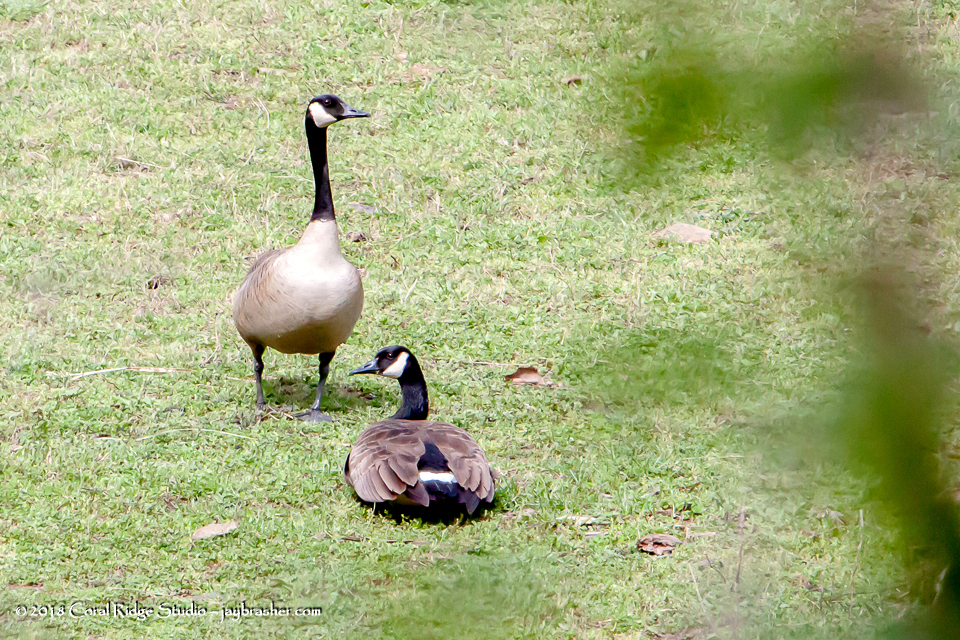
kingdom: Animalia
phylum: Chordata
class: Aves
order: Anseriformes
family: Anatidae
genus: Branta
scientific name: Branta canadensis
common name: Canada goose
